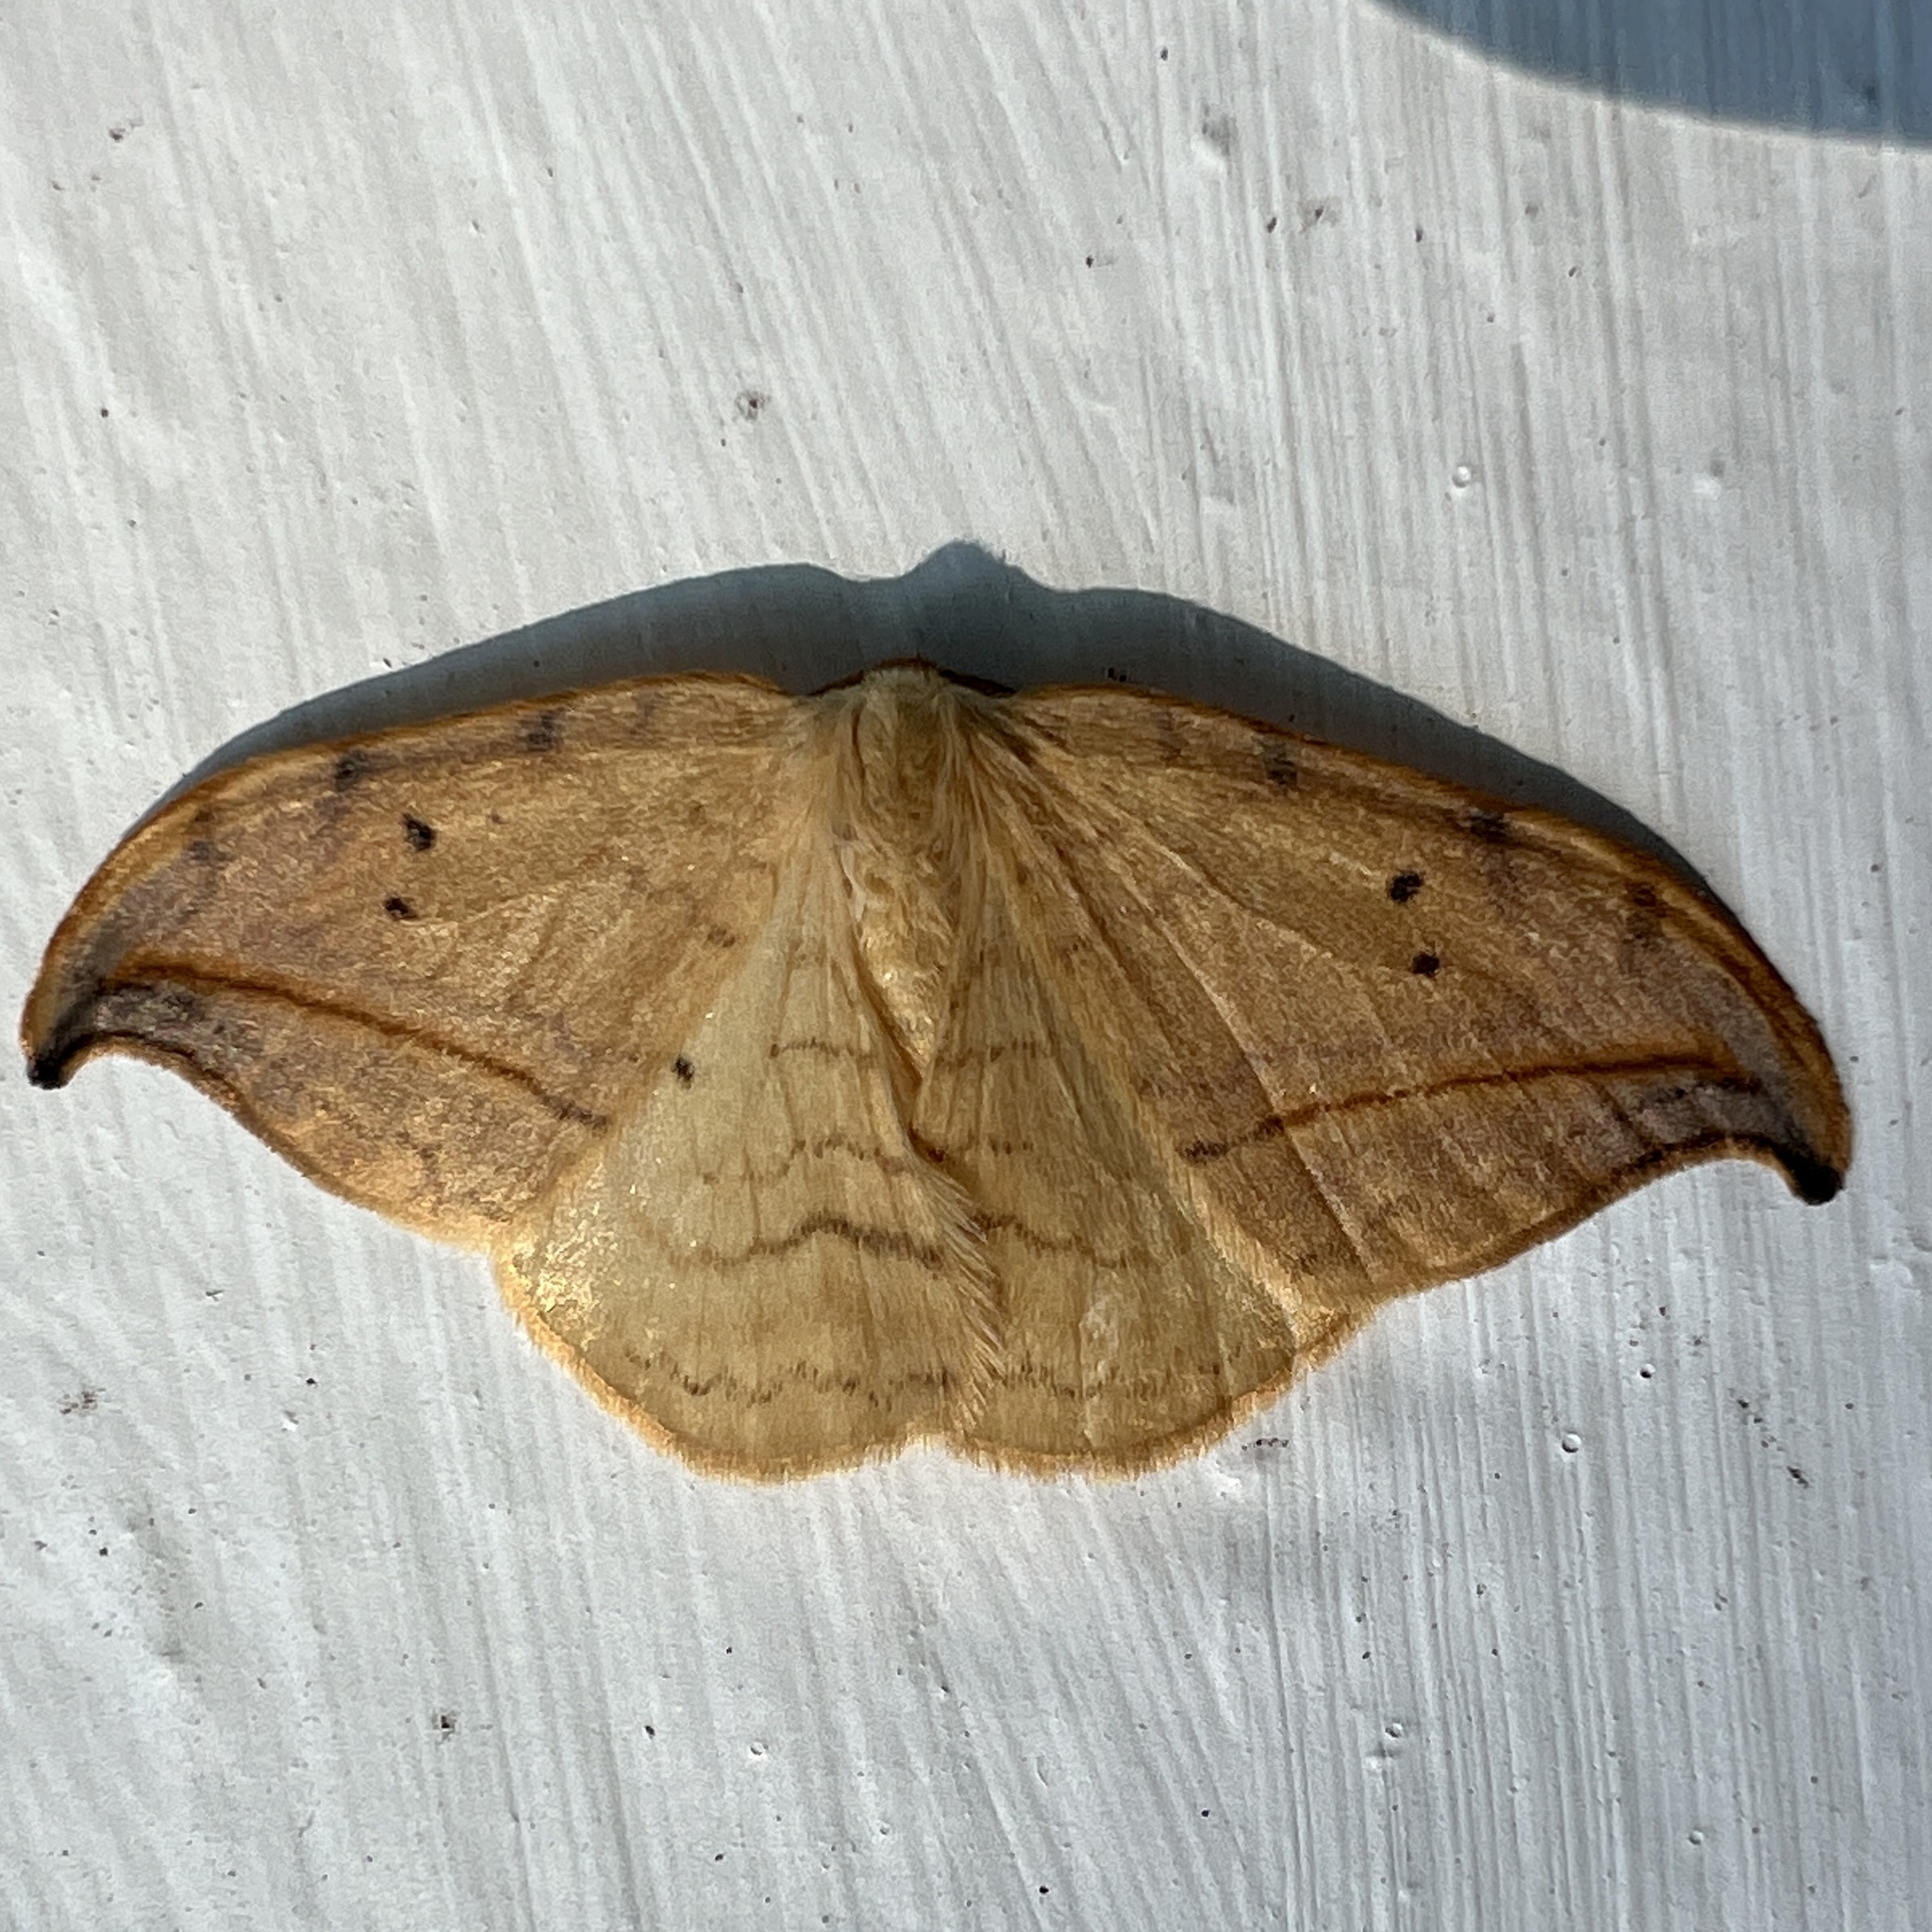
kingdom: Animalia
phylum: Arthropoda
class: Insecta
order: Lepidoptera
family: Drepanidae
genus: Drepana
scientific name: Drepana arcuata
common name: Arched hooktip moth
